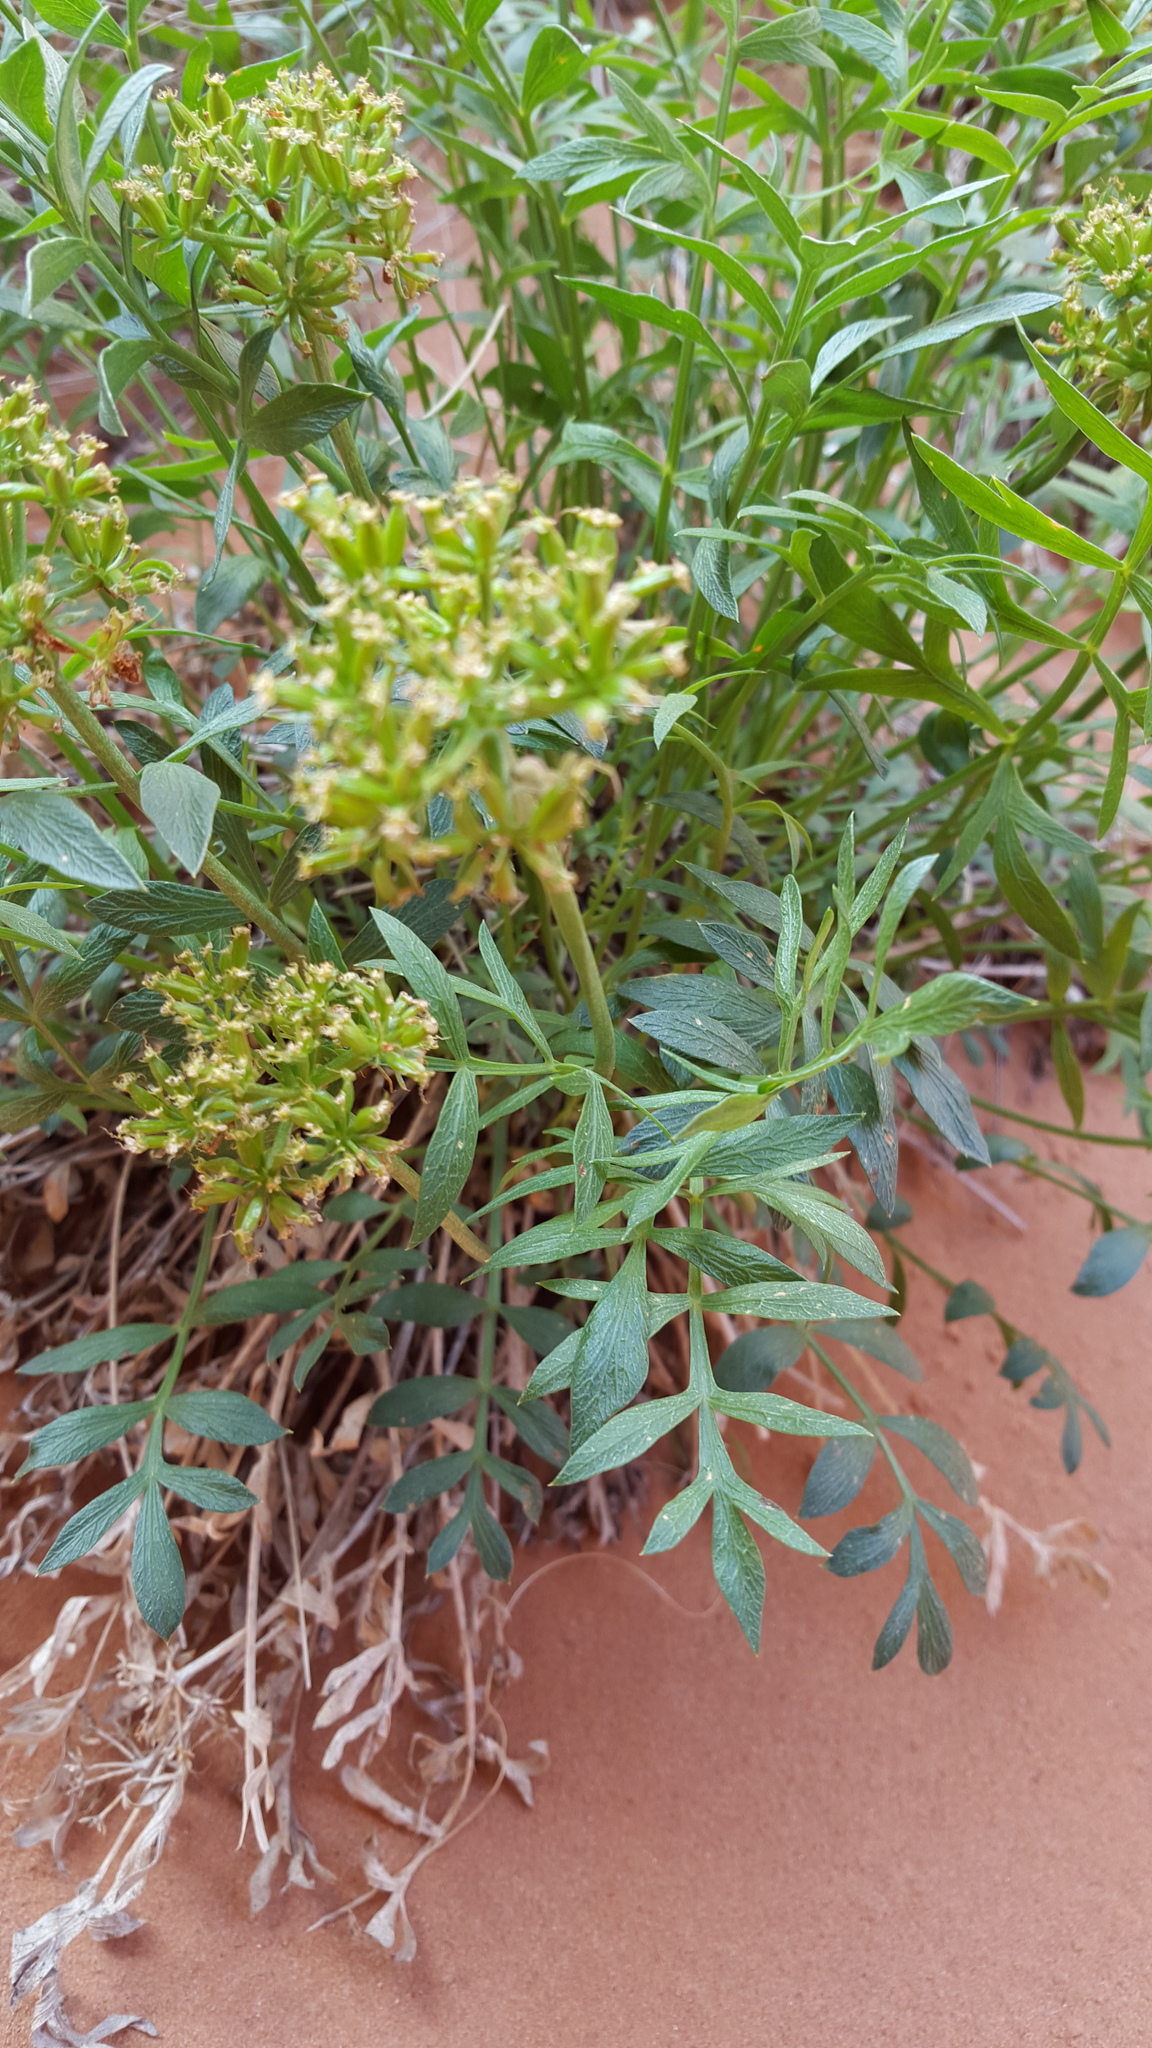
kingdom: Plantae
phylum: Tracheophyta
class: Magnoliopsida
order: Apiales
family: Apiaceae
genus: Lomatium
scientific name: Lomatium latilobum
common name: Canyonlands lomatium
